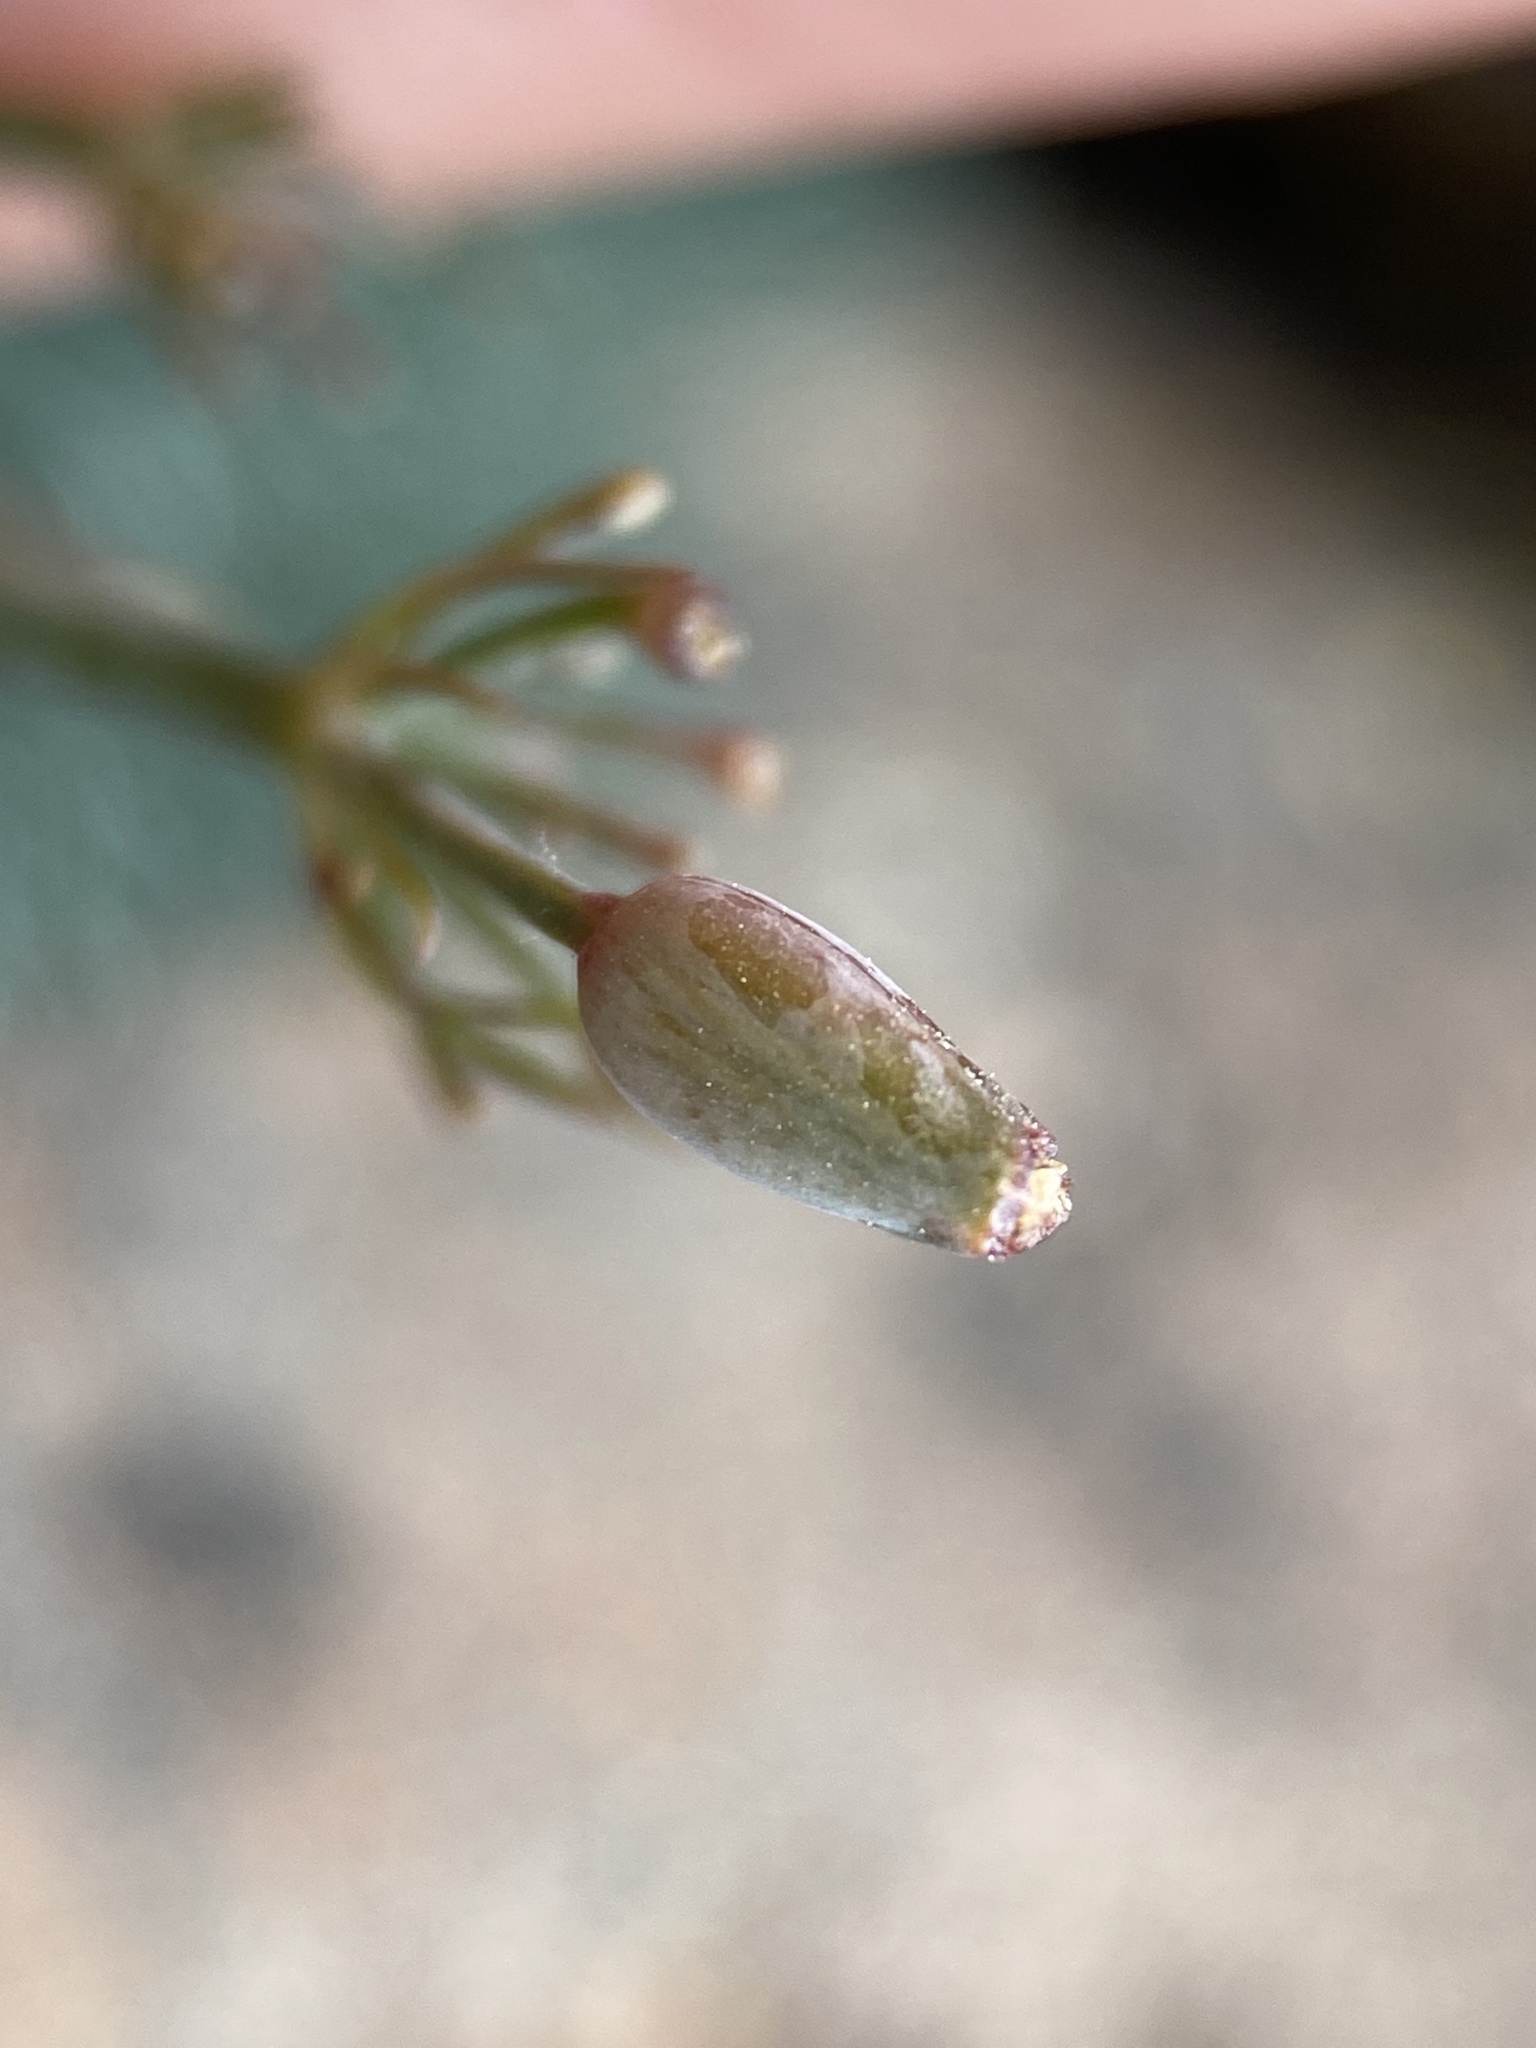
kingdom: Plantae
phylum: Tracheophyta
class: Magnoliopsida
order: Apiales
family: Apiaceae
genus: Lomatium
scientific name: Lomatium tuberosum
